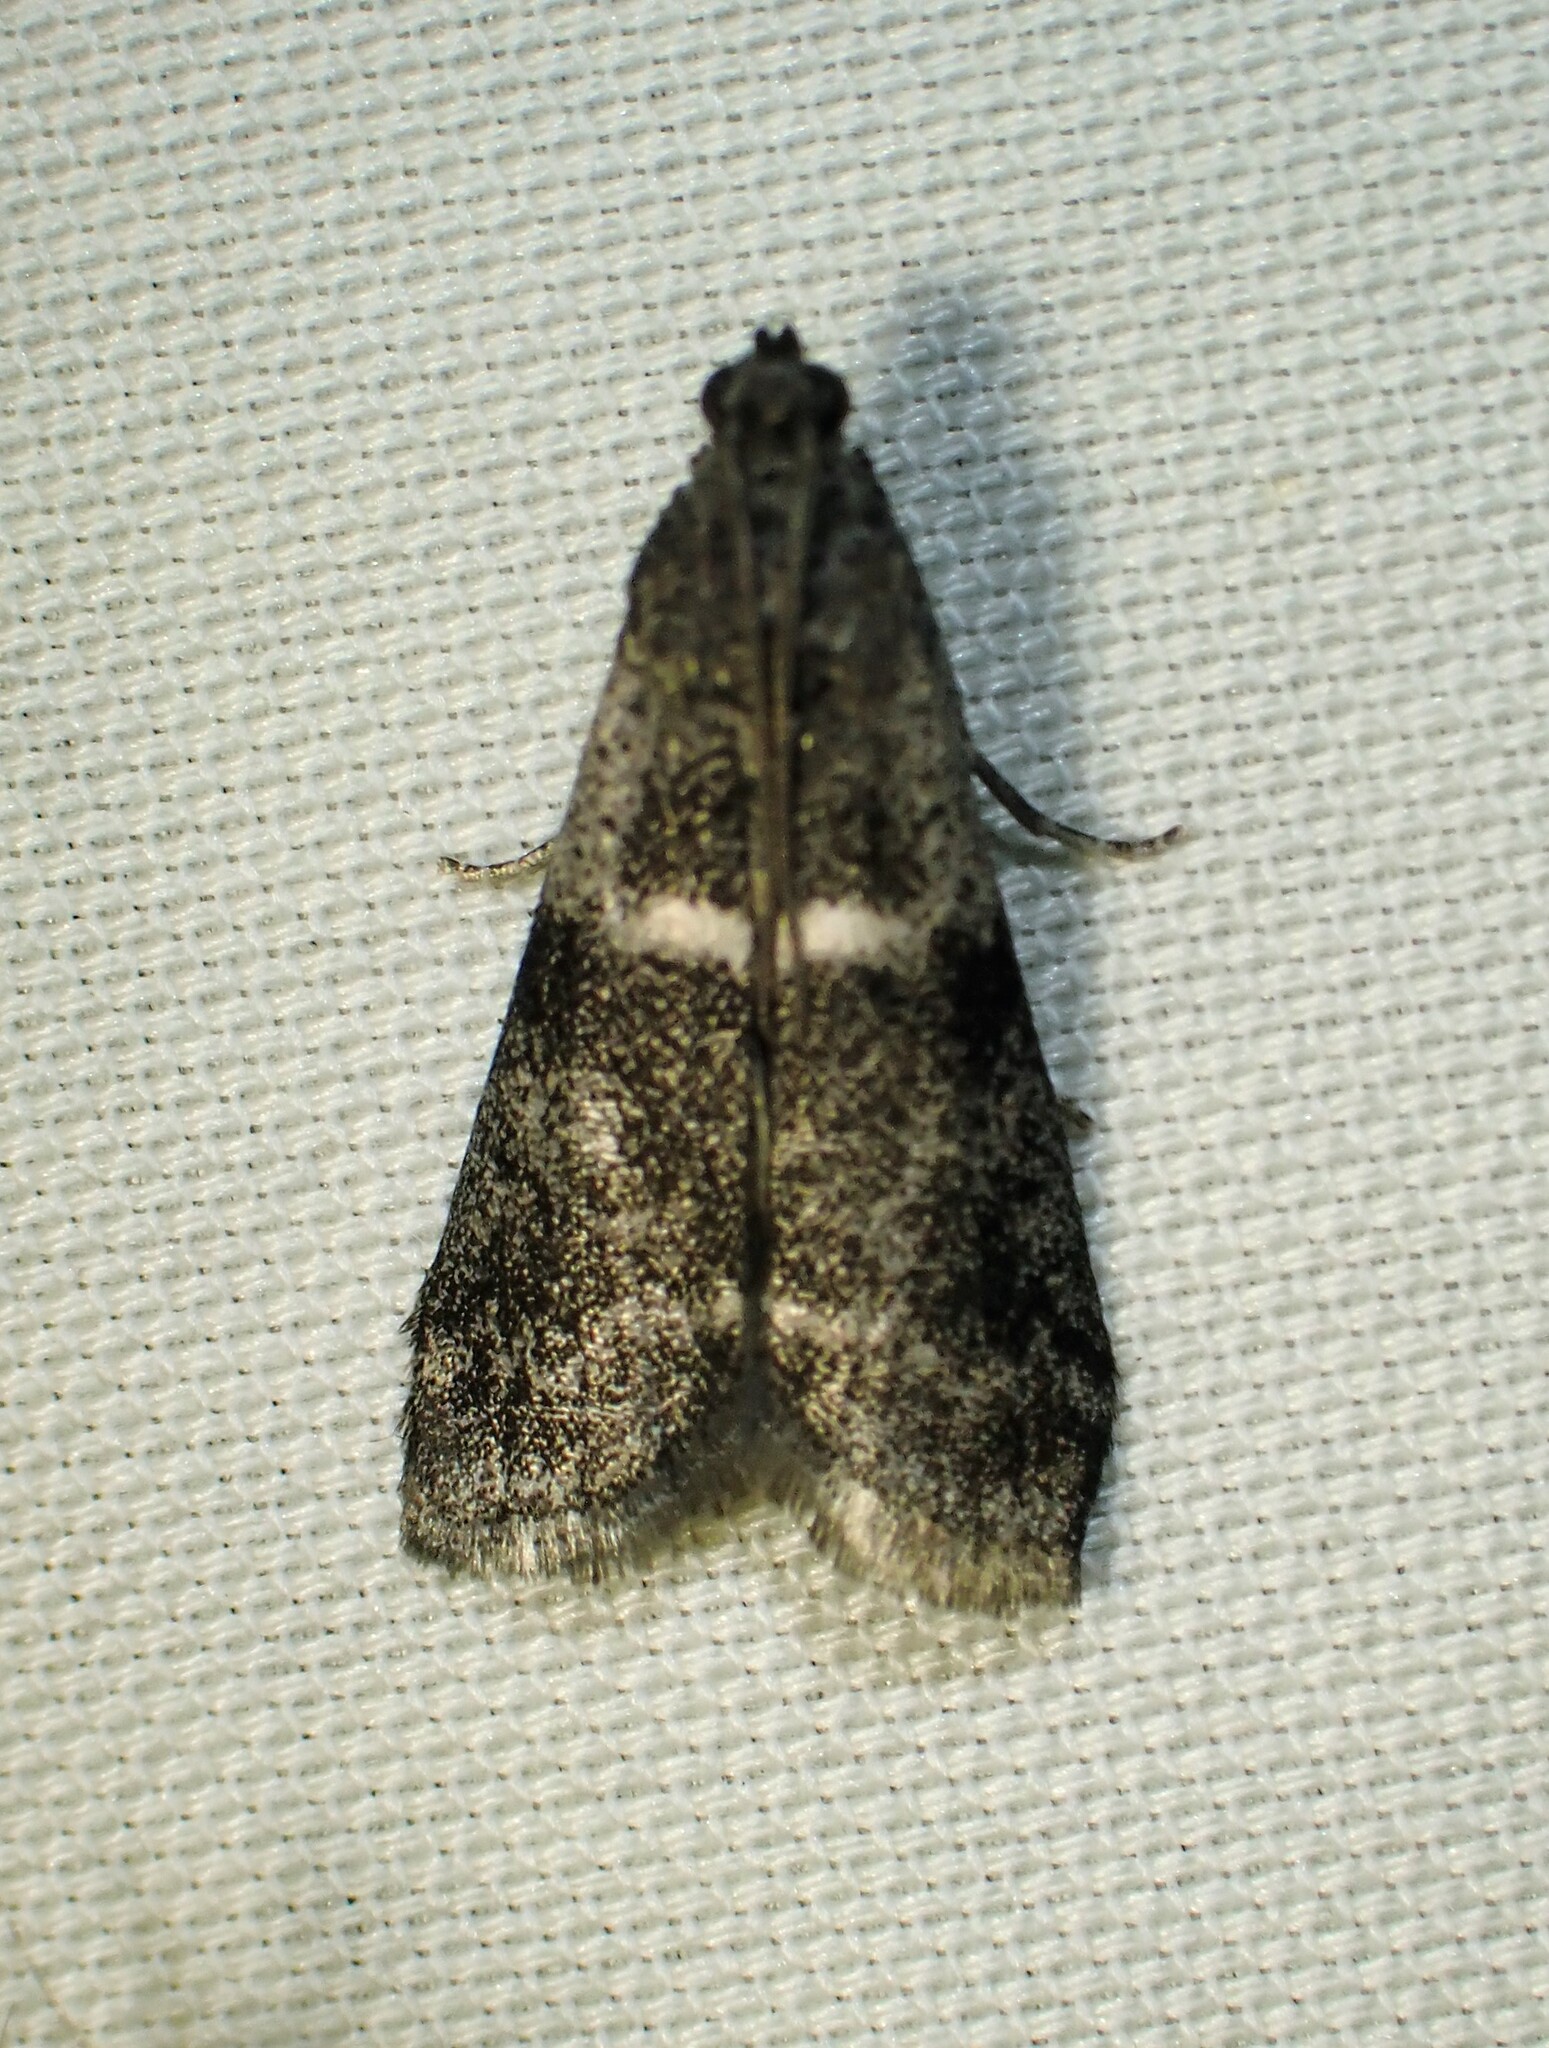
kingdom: Animalia
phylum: Arthropoda
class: Insecta
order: Lepidoptera
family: Pyralidae
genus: Apomyelois
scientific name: Apomyelois bistriatella
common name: Heath knot-horn
